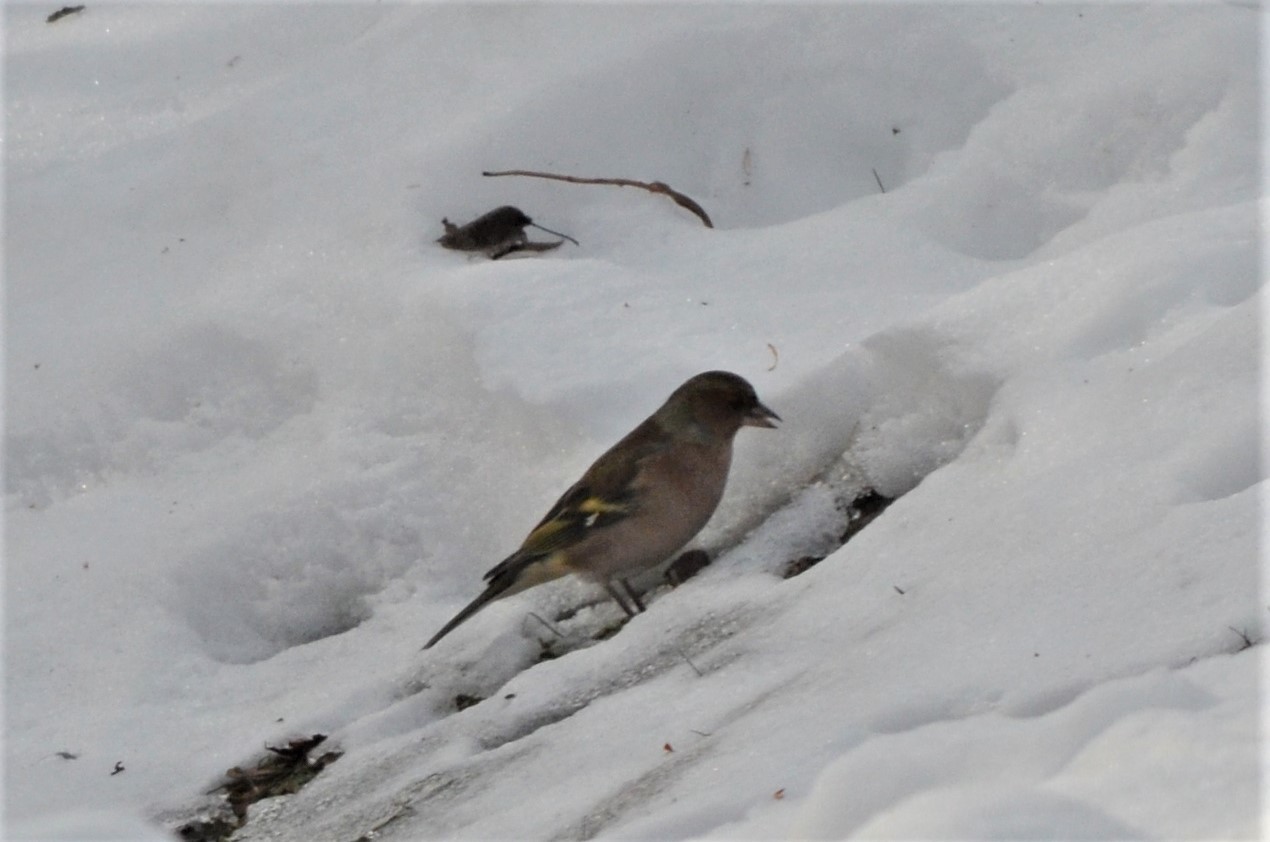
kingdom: Animalia
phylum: Chordata
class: Aves
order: Passeriformes
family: Fringillidae
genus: Fringilla
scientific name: Fringilla coelebs
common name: Common chaffinch
